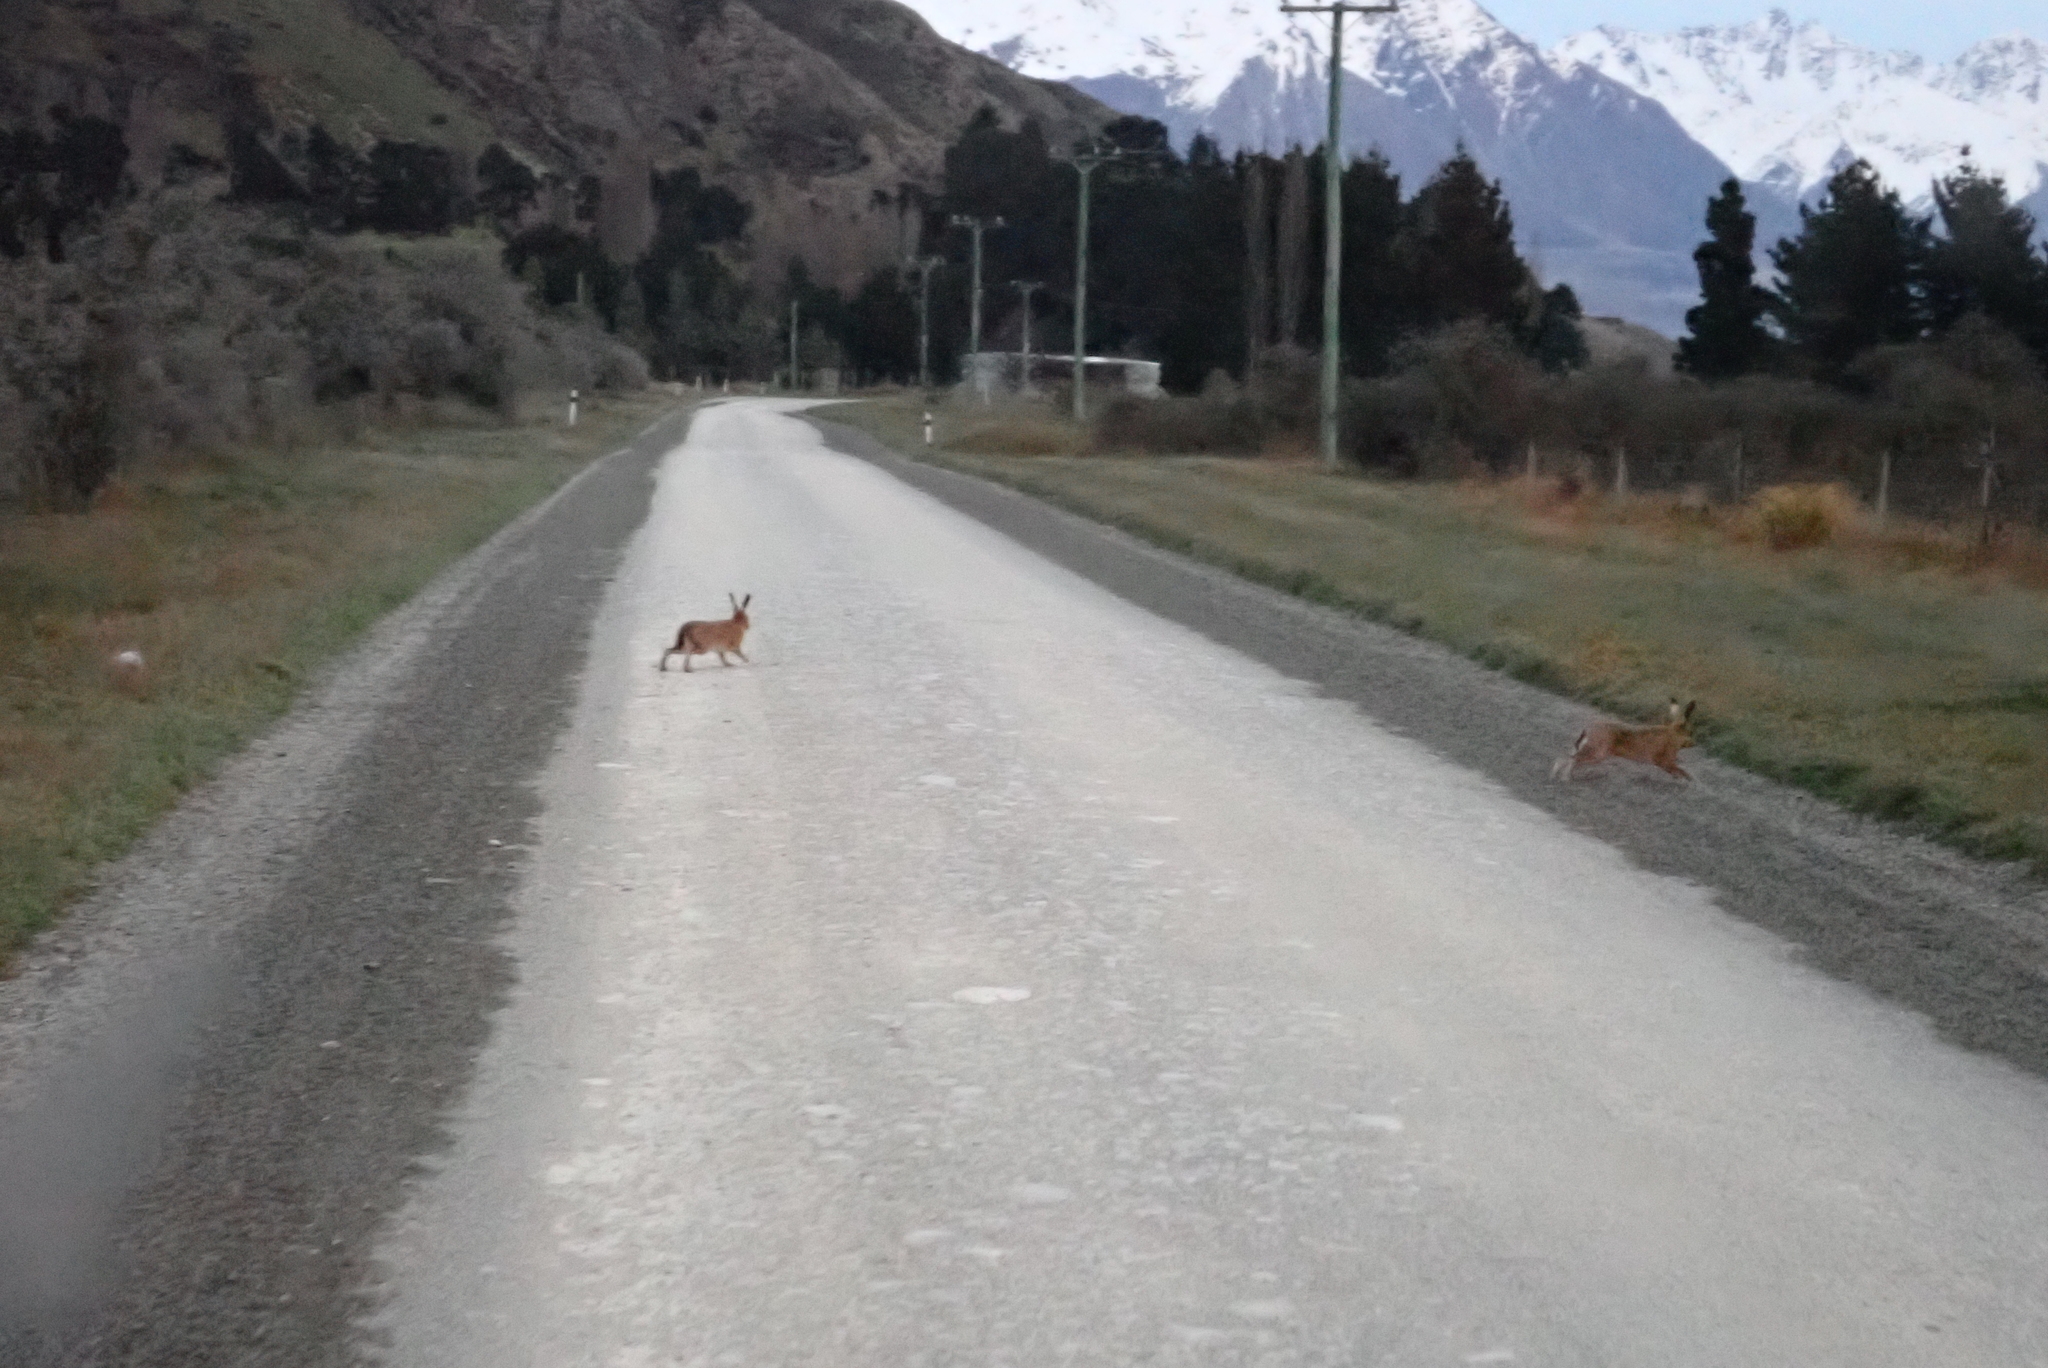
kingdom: Animalia
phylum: Chordata
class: Mammalia
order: Lagomorpha
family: Leporidae
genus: Lepus
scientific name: Lepus europaeus
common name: European hare
